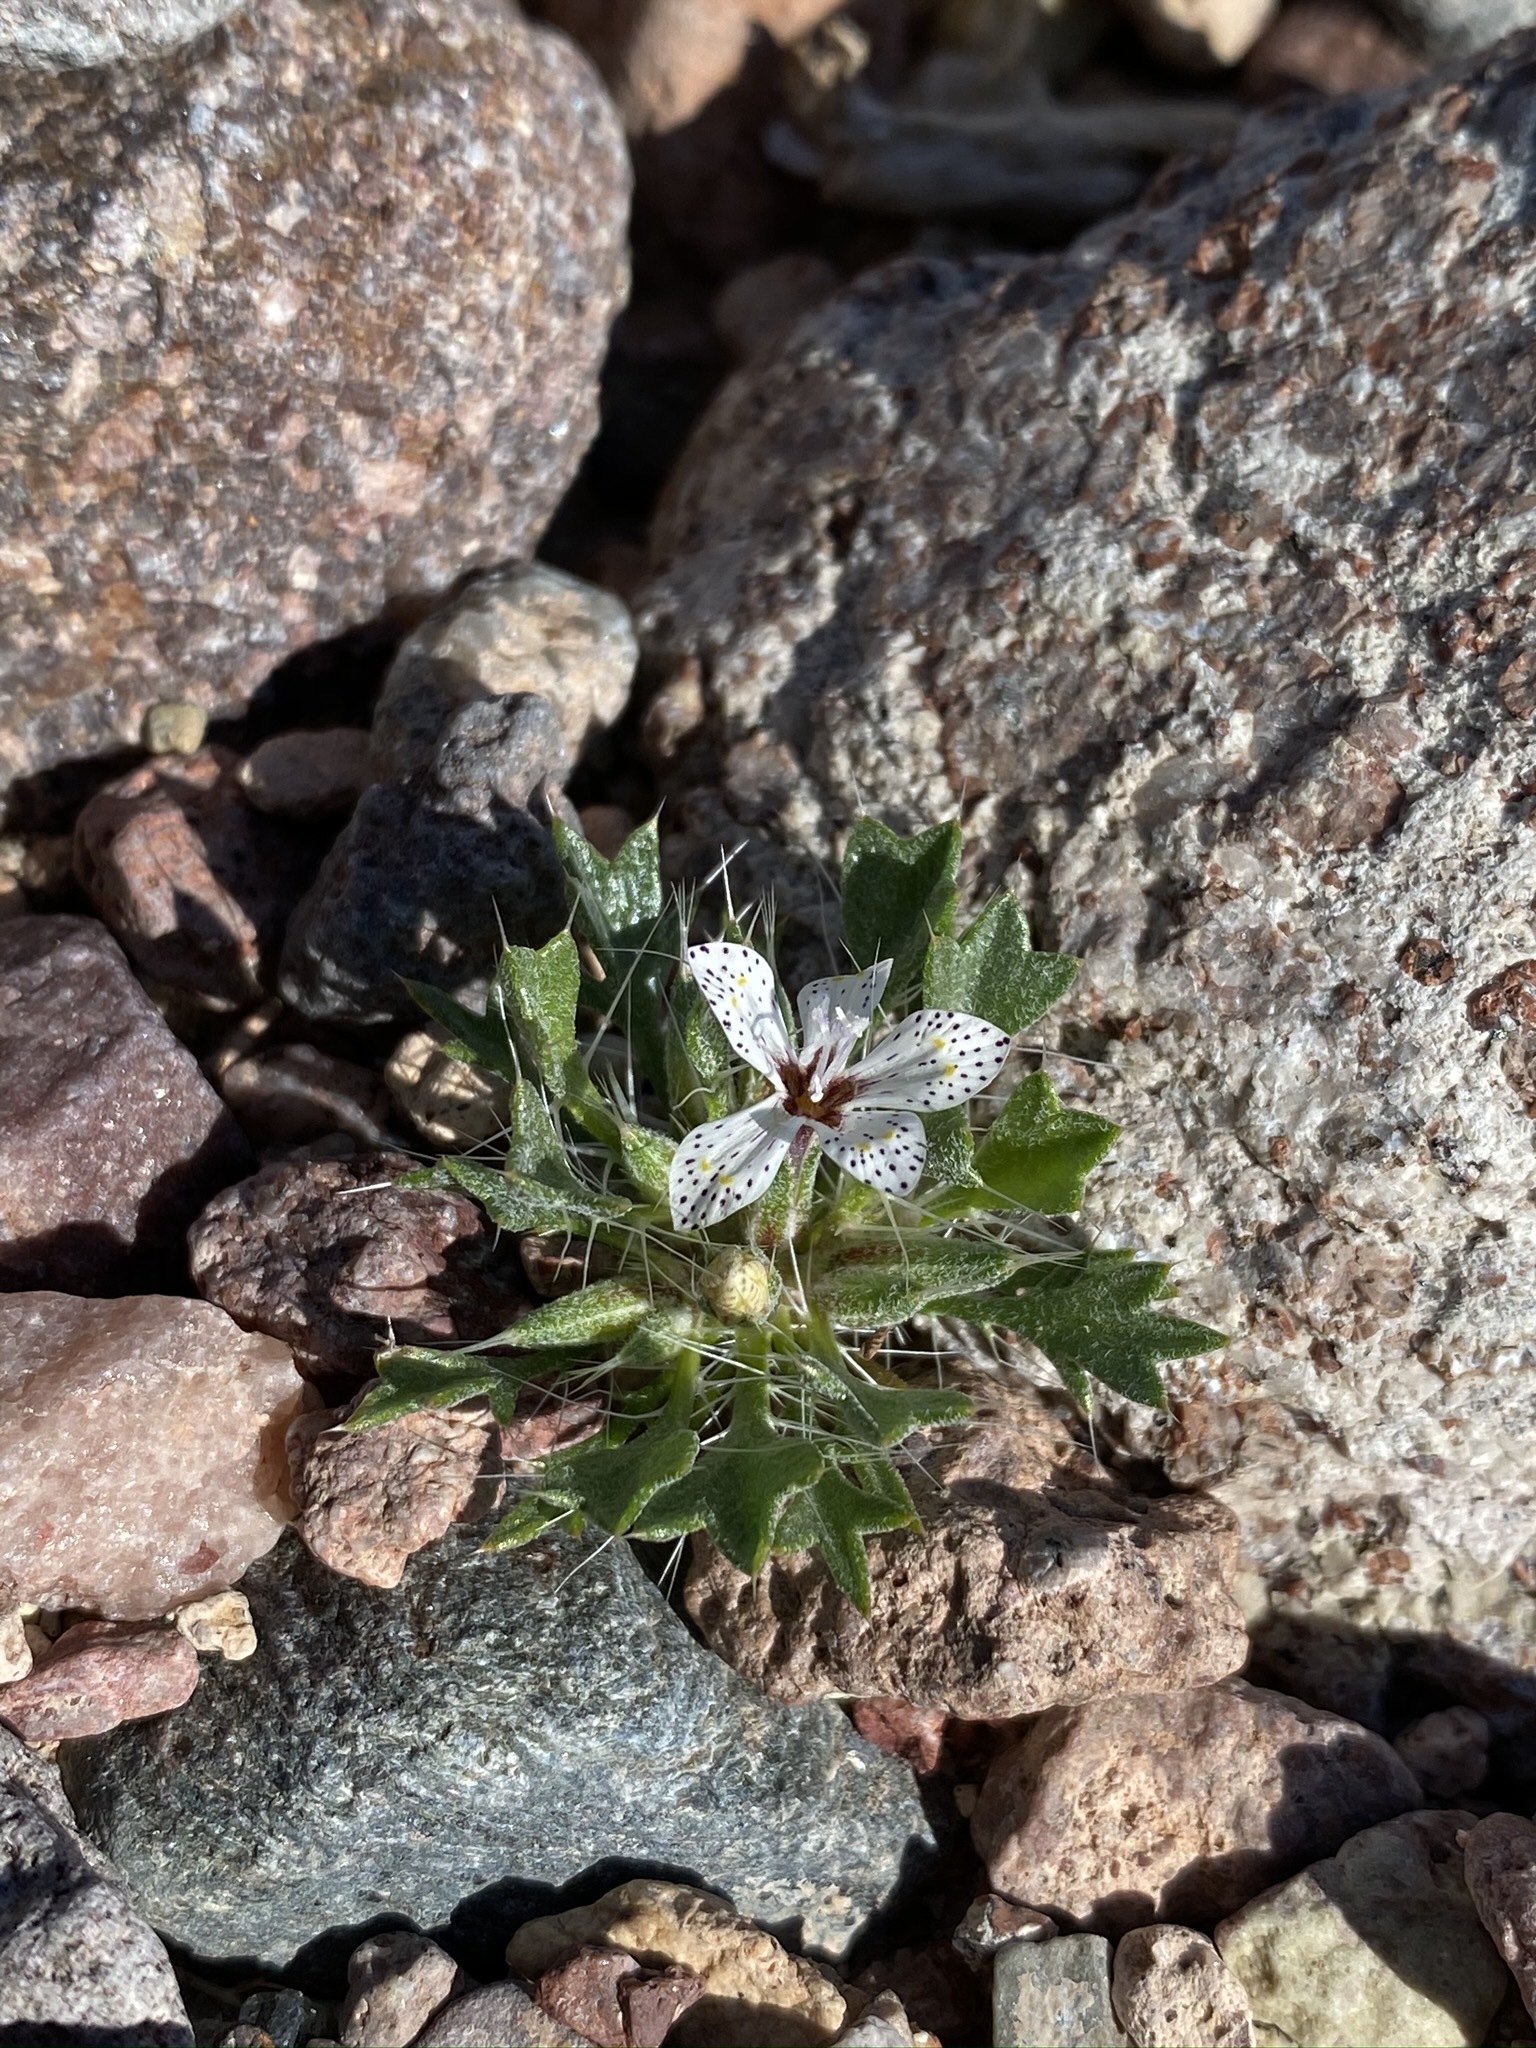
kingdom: Plantae
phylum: Tracheophyta
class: Magnoliopsida
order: Ericales
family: Polemoniaceae
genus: Langloisia
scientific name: Langloisia setosissima
